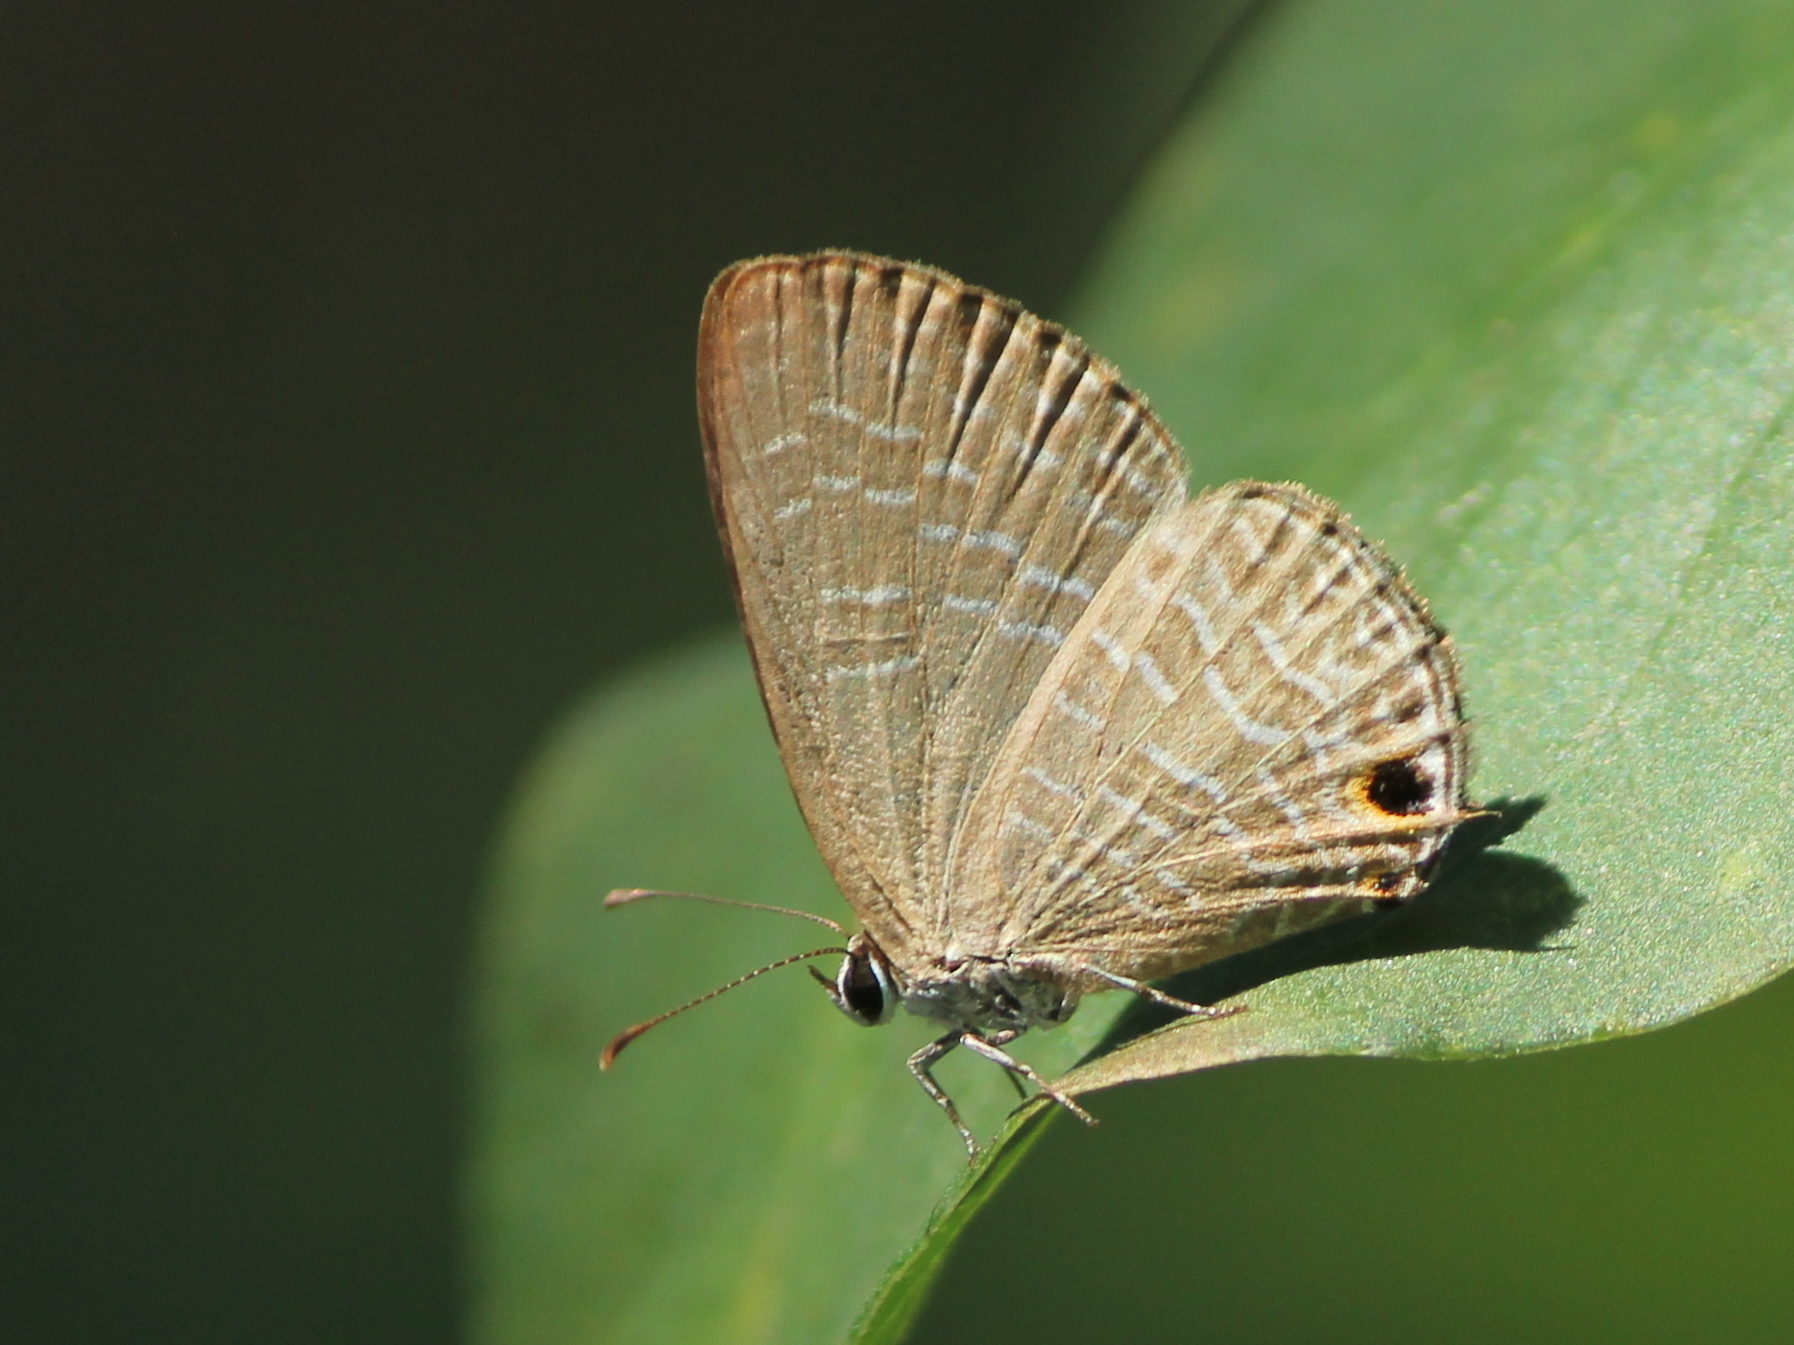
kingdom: Animalia
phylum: Arthropoda
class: Insecta
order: Lepidoptera
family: Lycaenidae
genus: Jamides
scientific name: Jamides bochus
